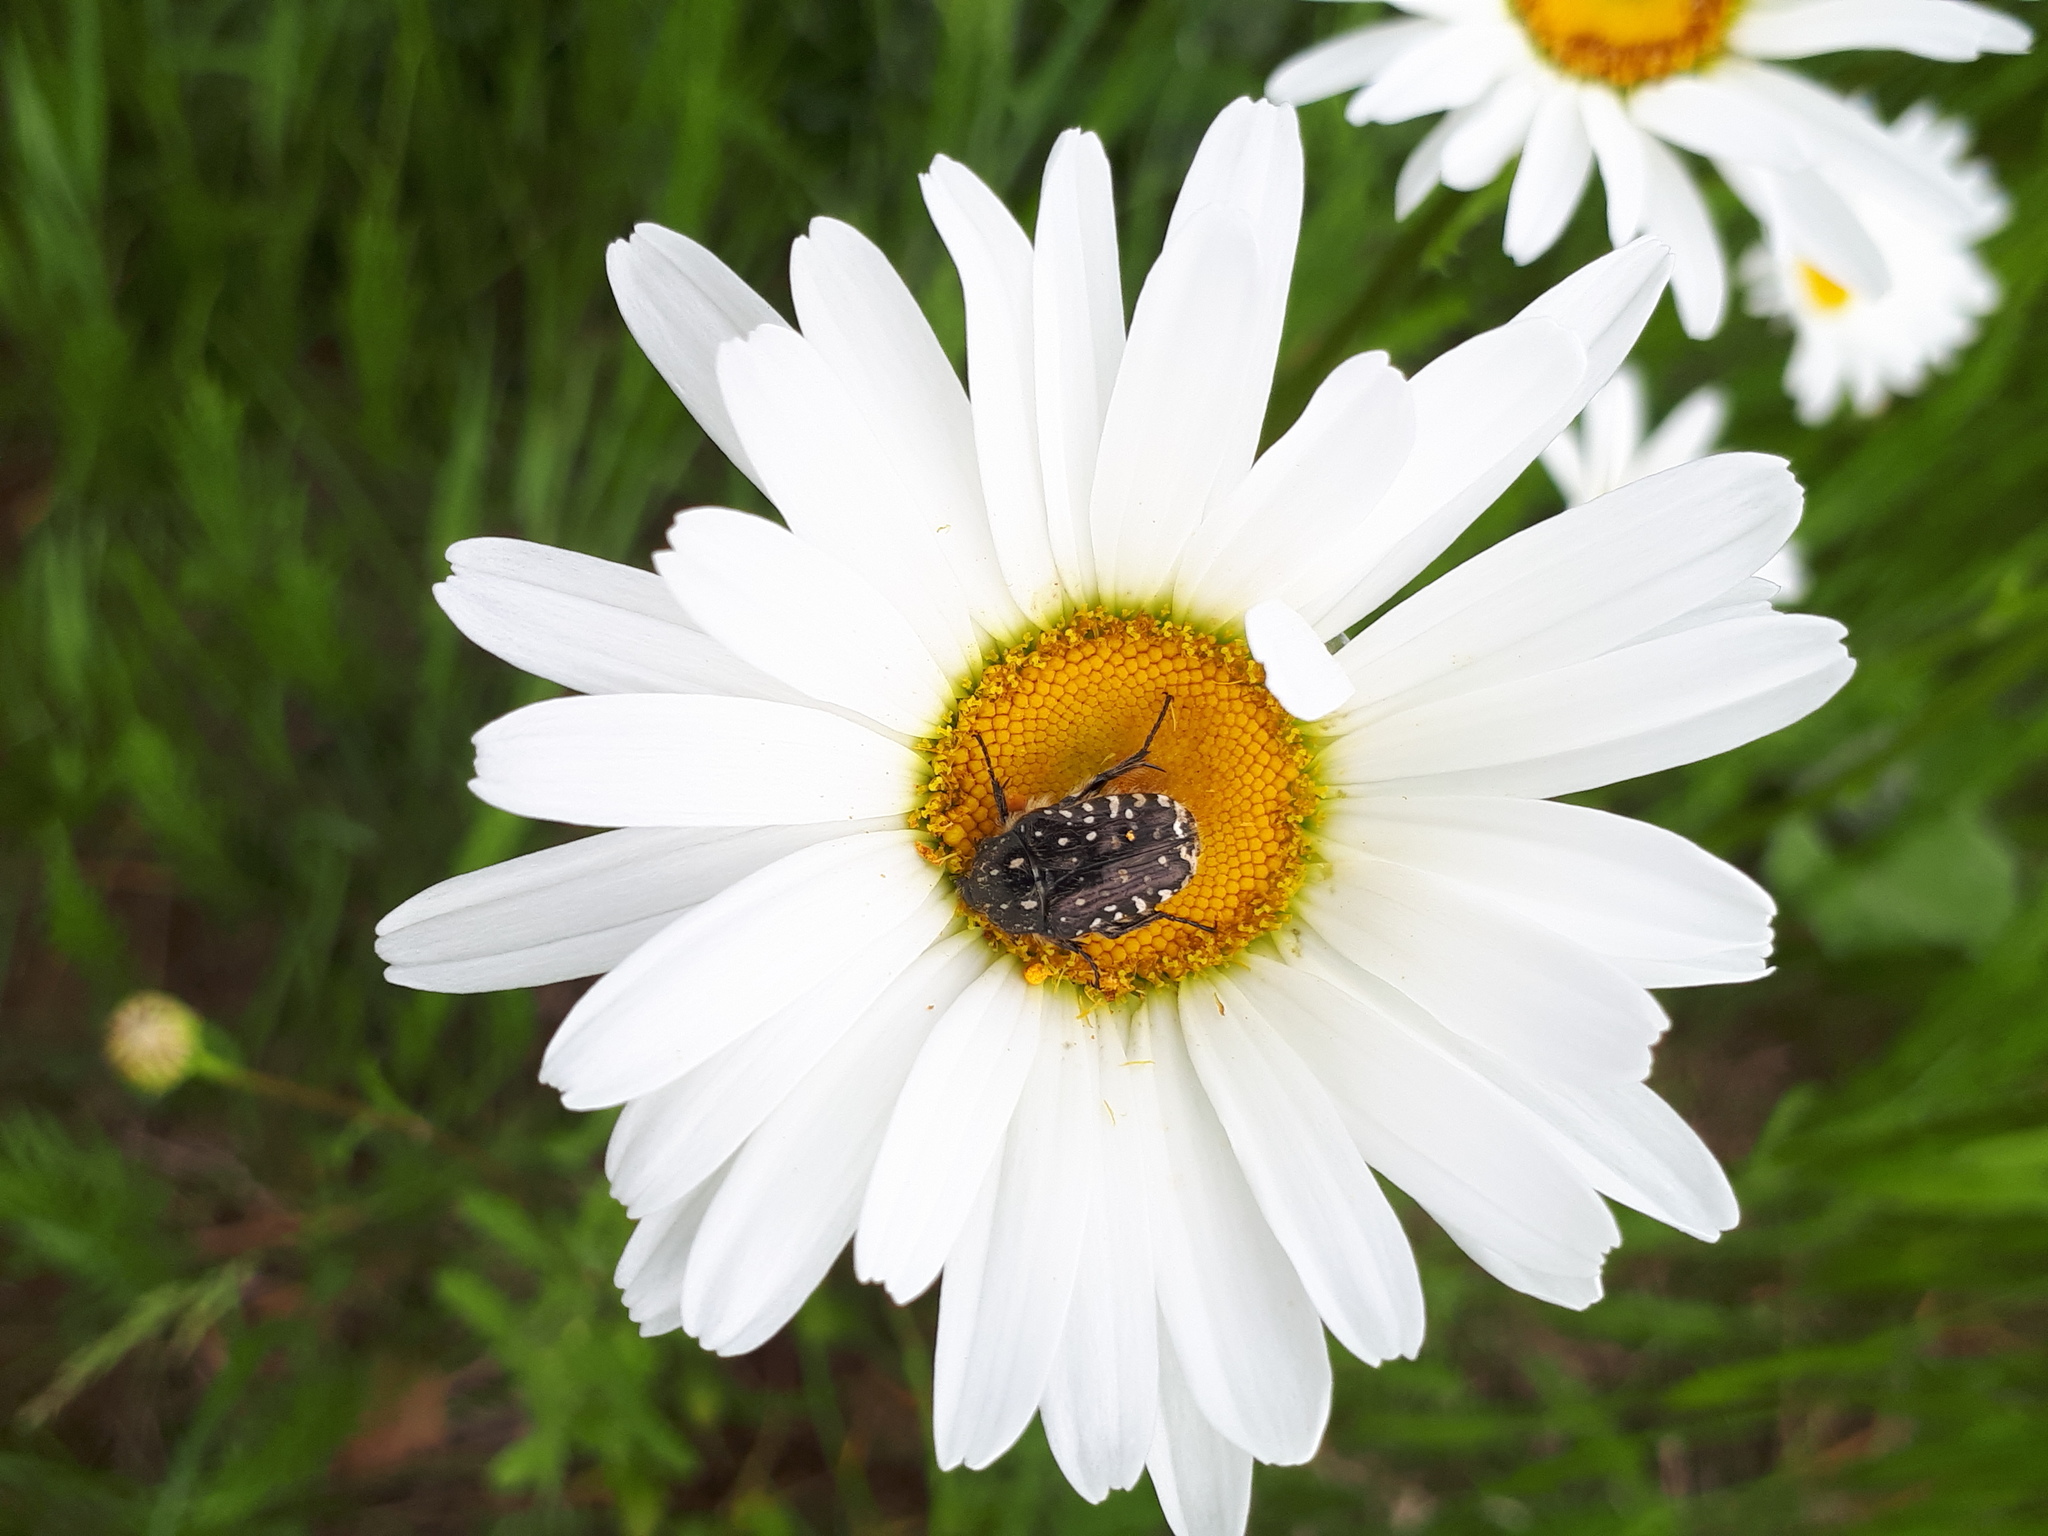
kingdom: Animalia
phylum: Arthropoda
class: Insecta
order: Coleoptera
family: Scarabaeidae
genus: Oxythyrea
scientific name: Oxythyrea funesta
